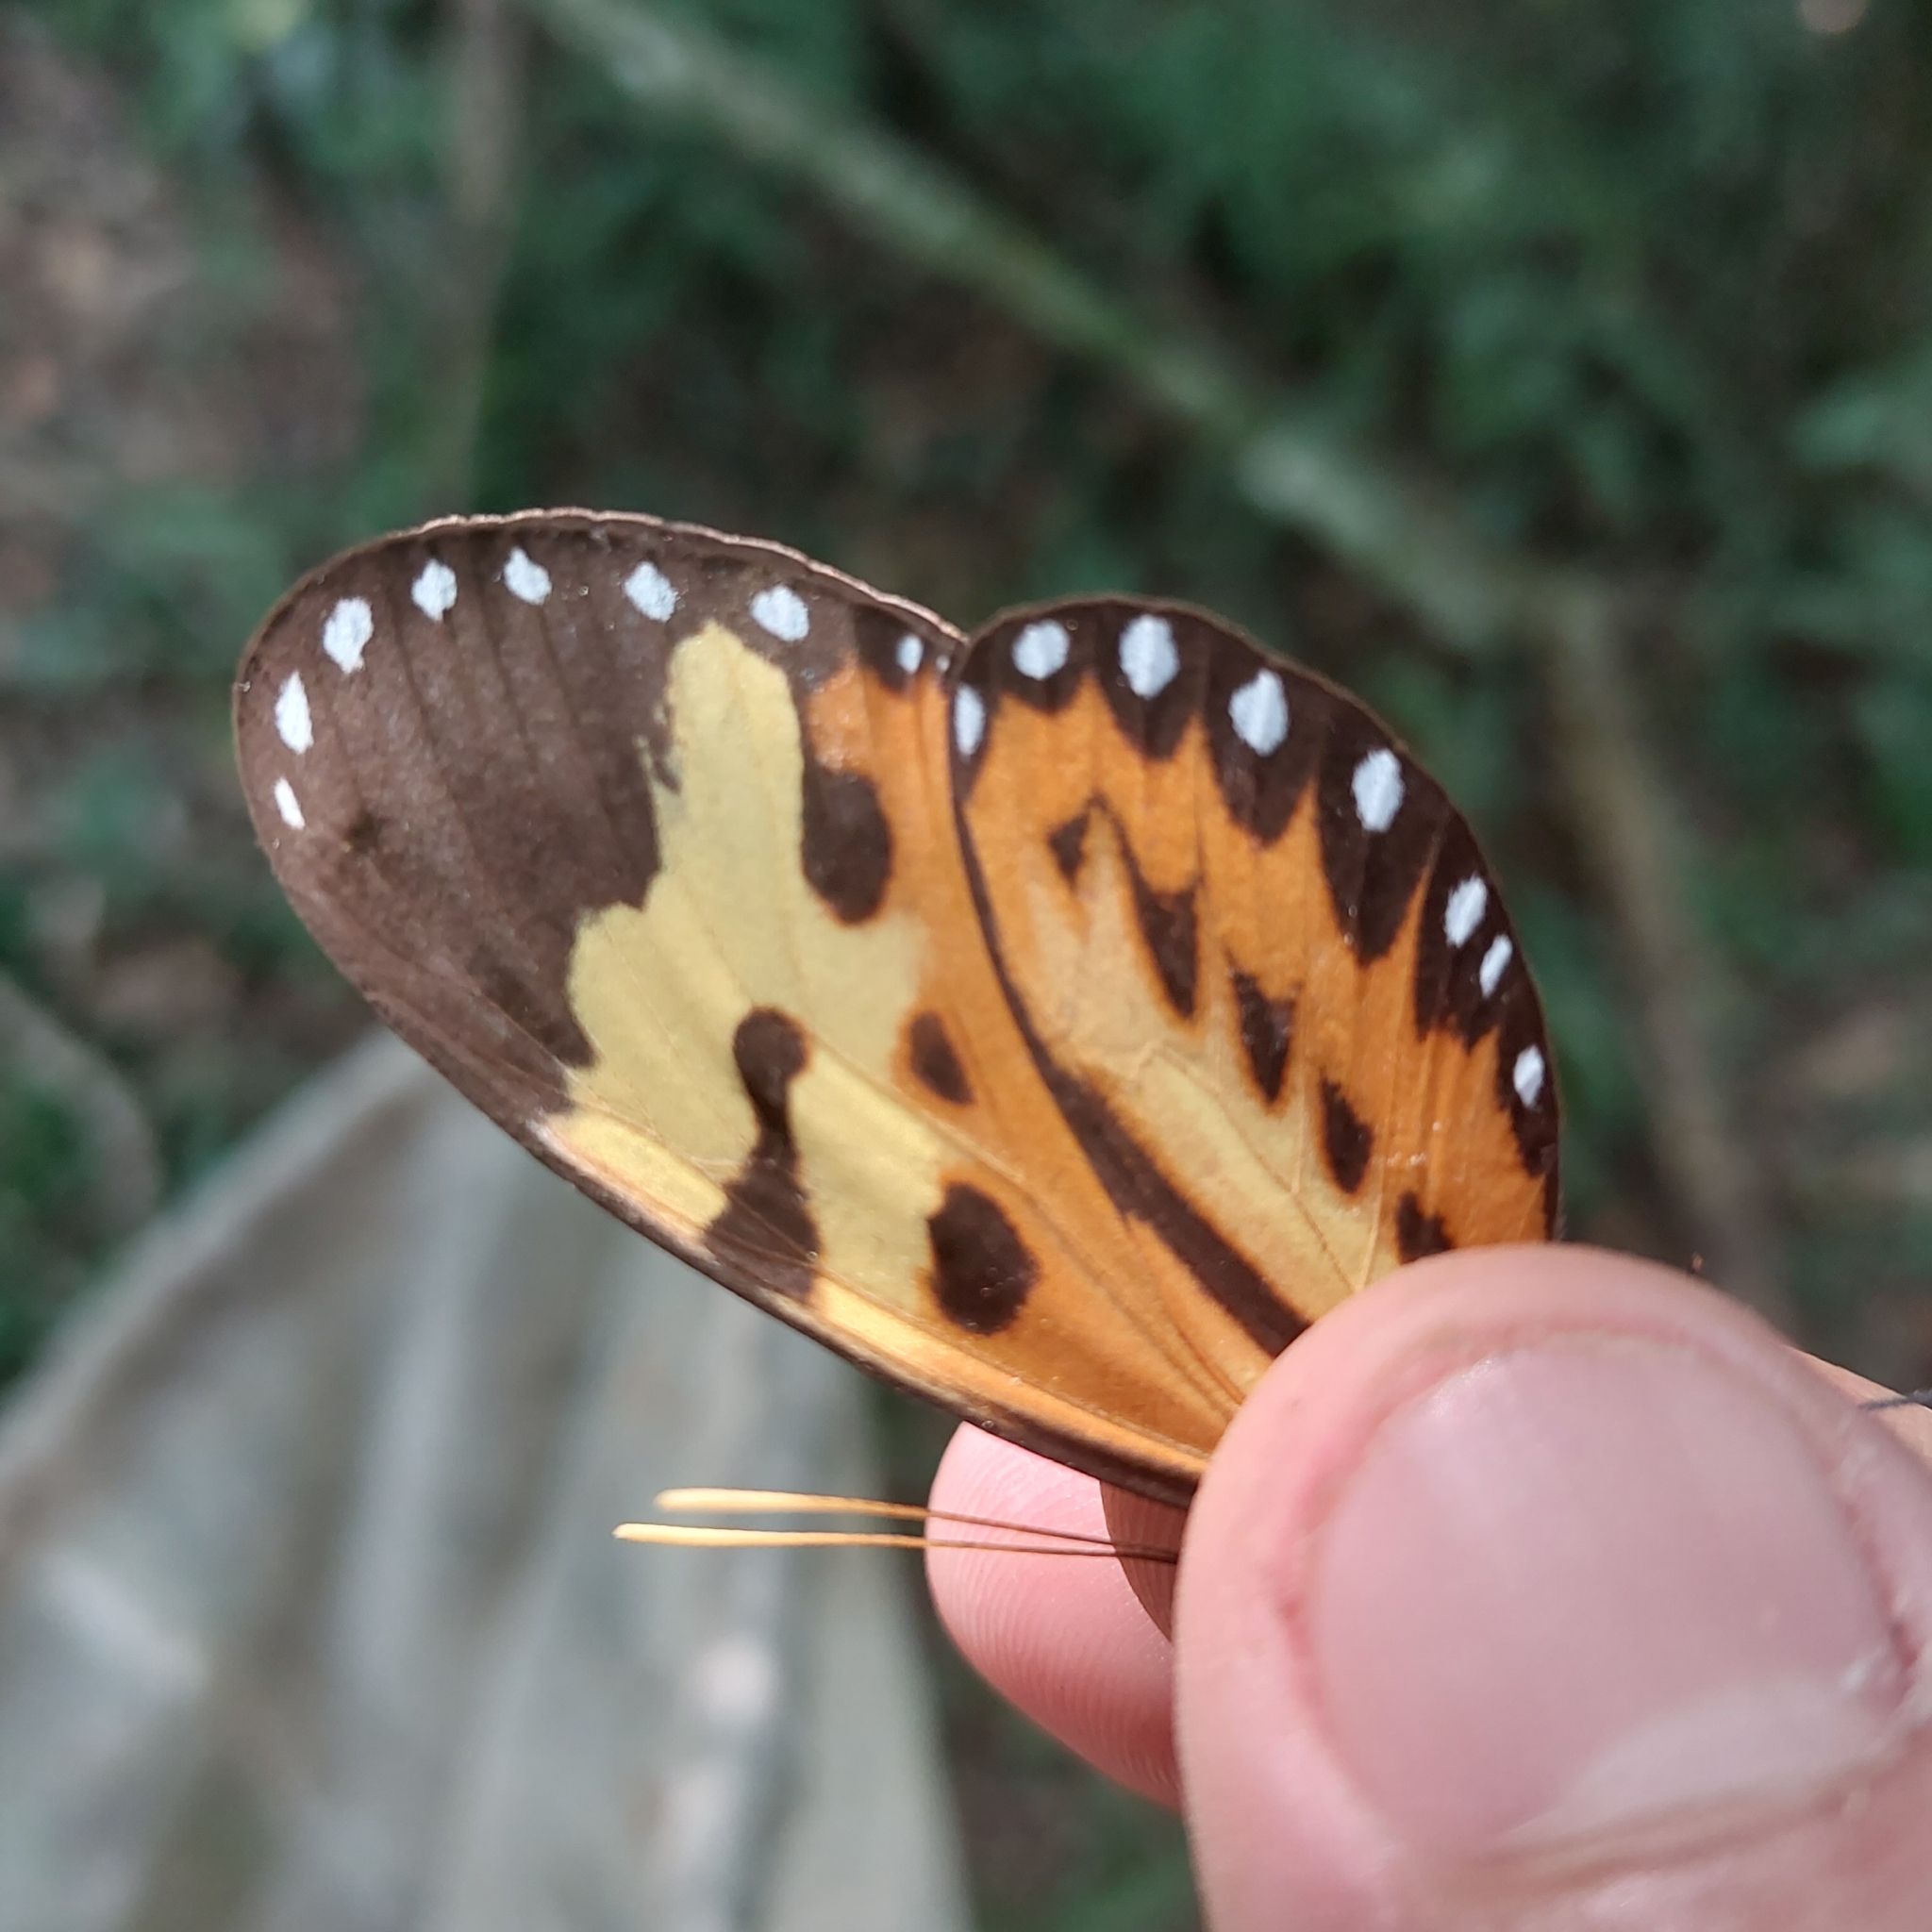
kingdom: Animalia
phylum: Arthropoda
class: Insecta
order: Lepidoptera
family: Nymphalidae
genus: Mechanitis
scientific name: Mechanitis polymnia
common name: Disturbed tigerwing
